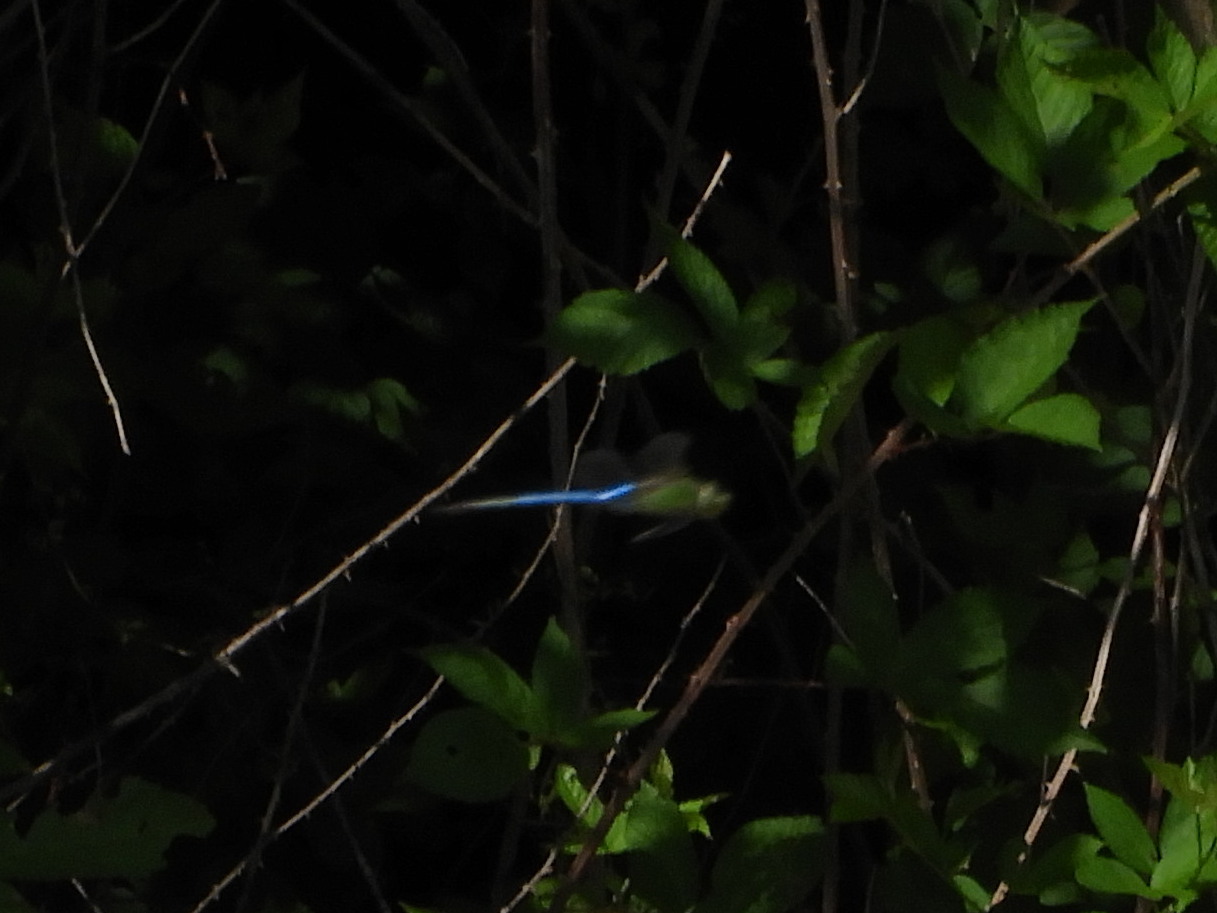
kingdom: Animalia
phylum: Arthropoda
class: Insecta
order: Odonata
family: Aeshnidae
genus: Anax
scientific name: Anax junius
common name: Common green darner
